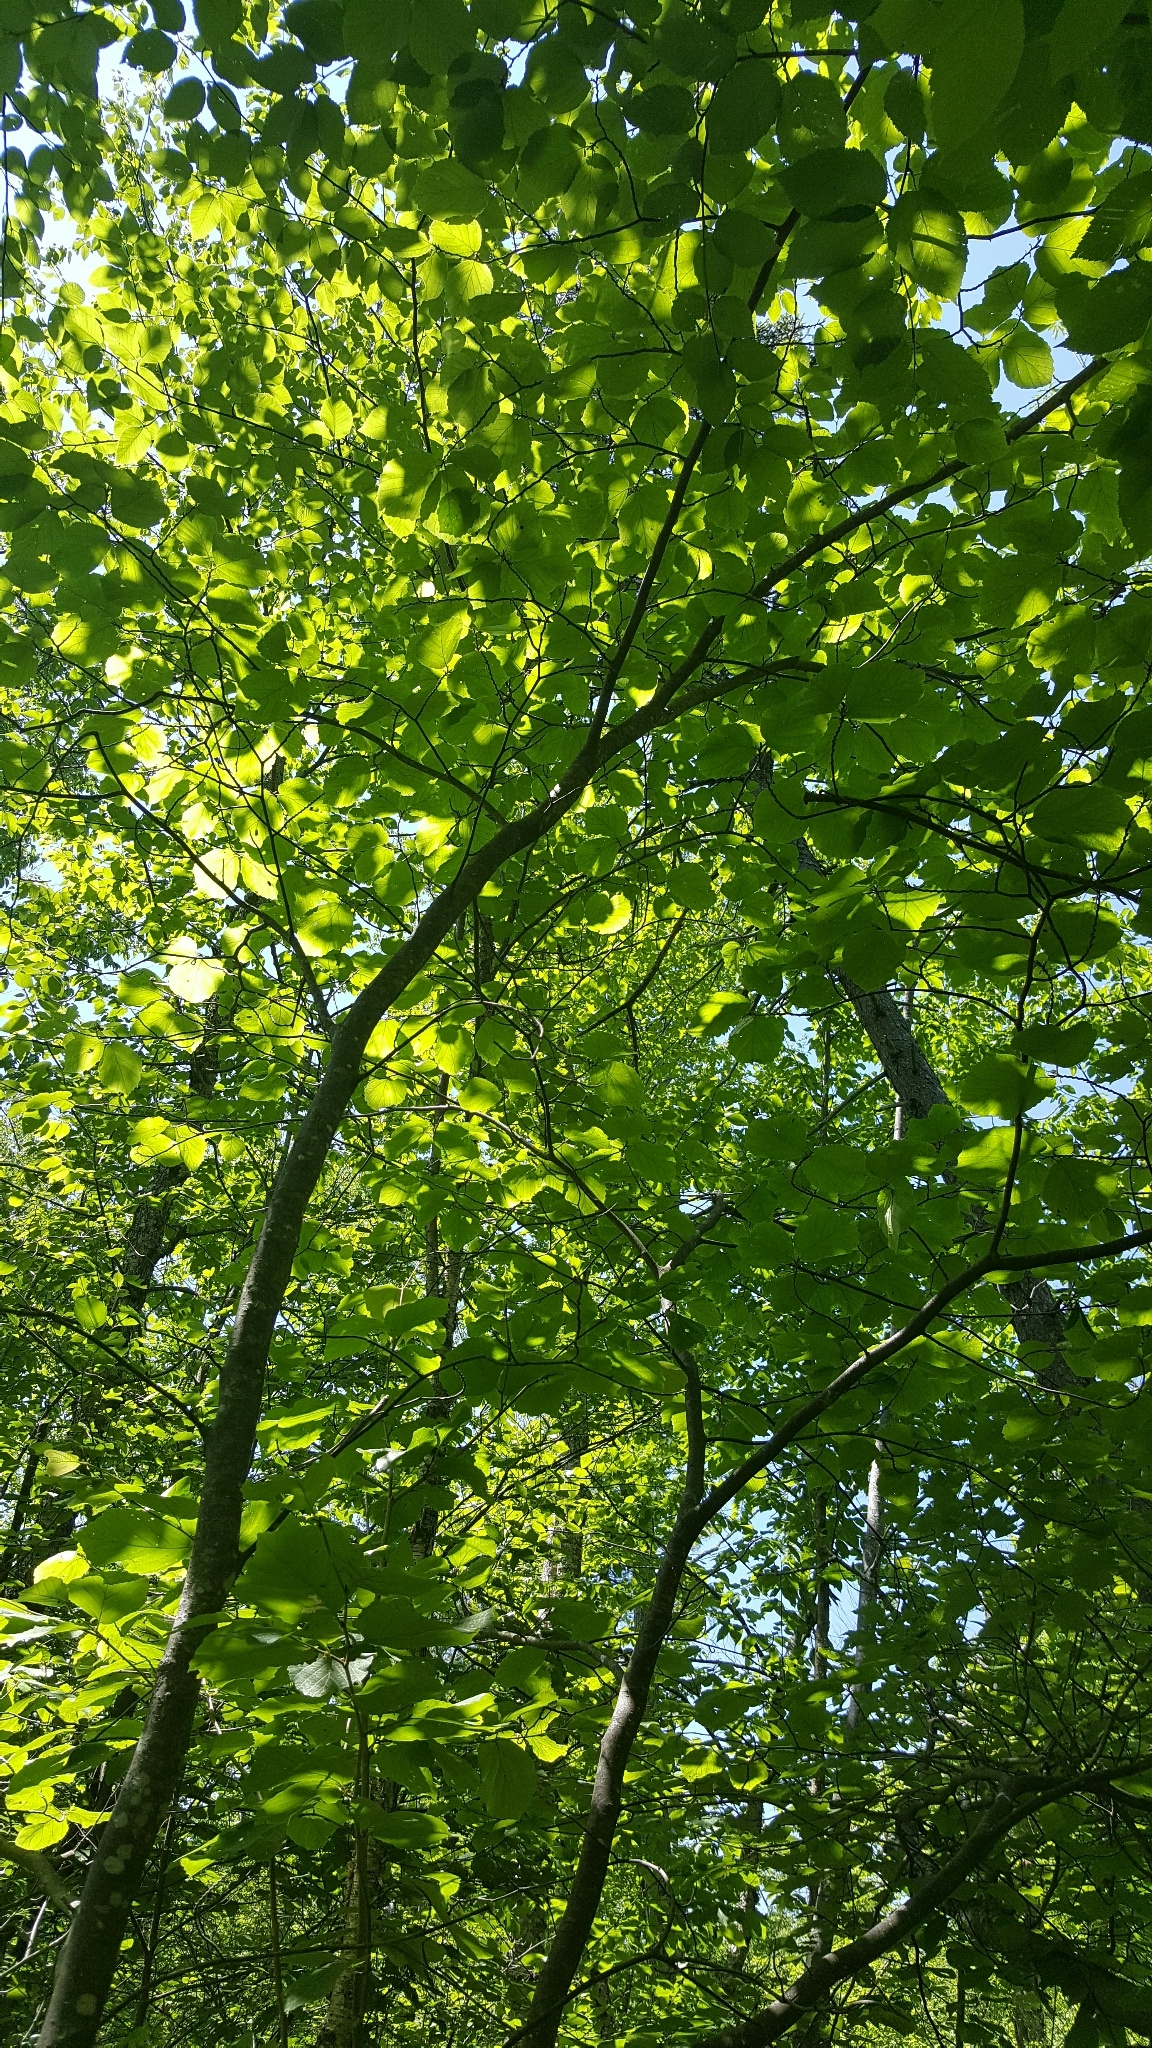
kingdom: Plantae
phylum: Tracheophyta
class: Magnoliopsida
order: Saxifragales
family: Hamamelidaceae
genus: Hamamelis
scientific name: Hamamelis virginiana
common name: Witch-hazel
